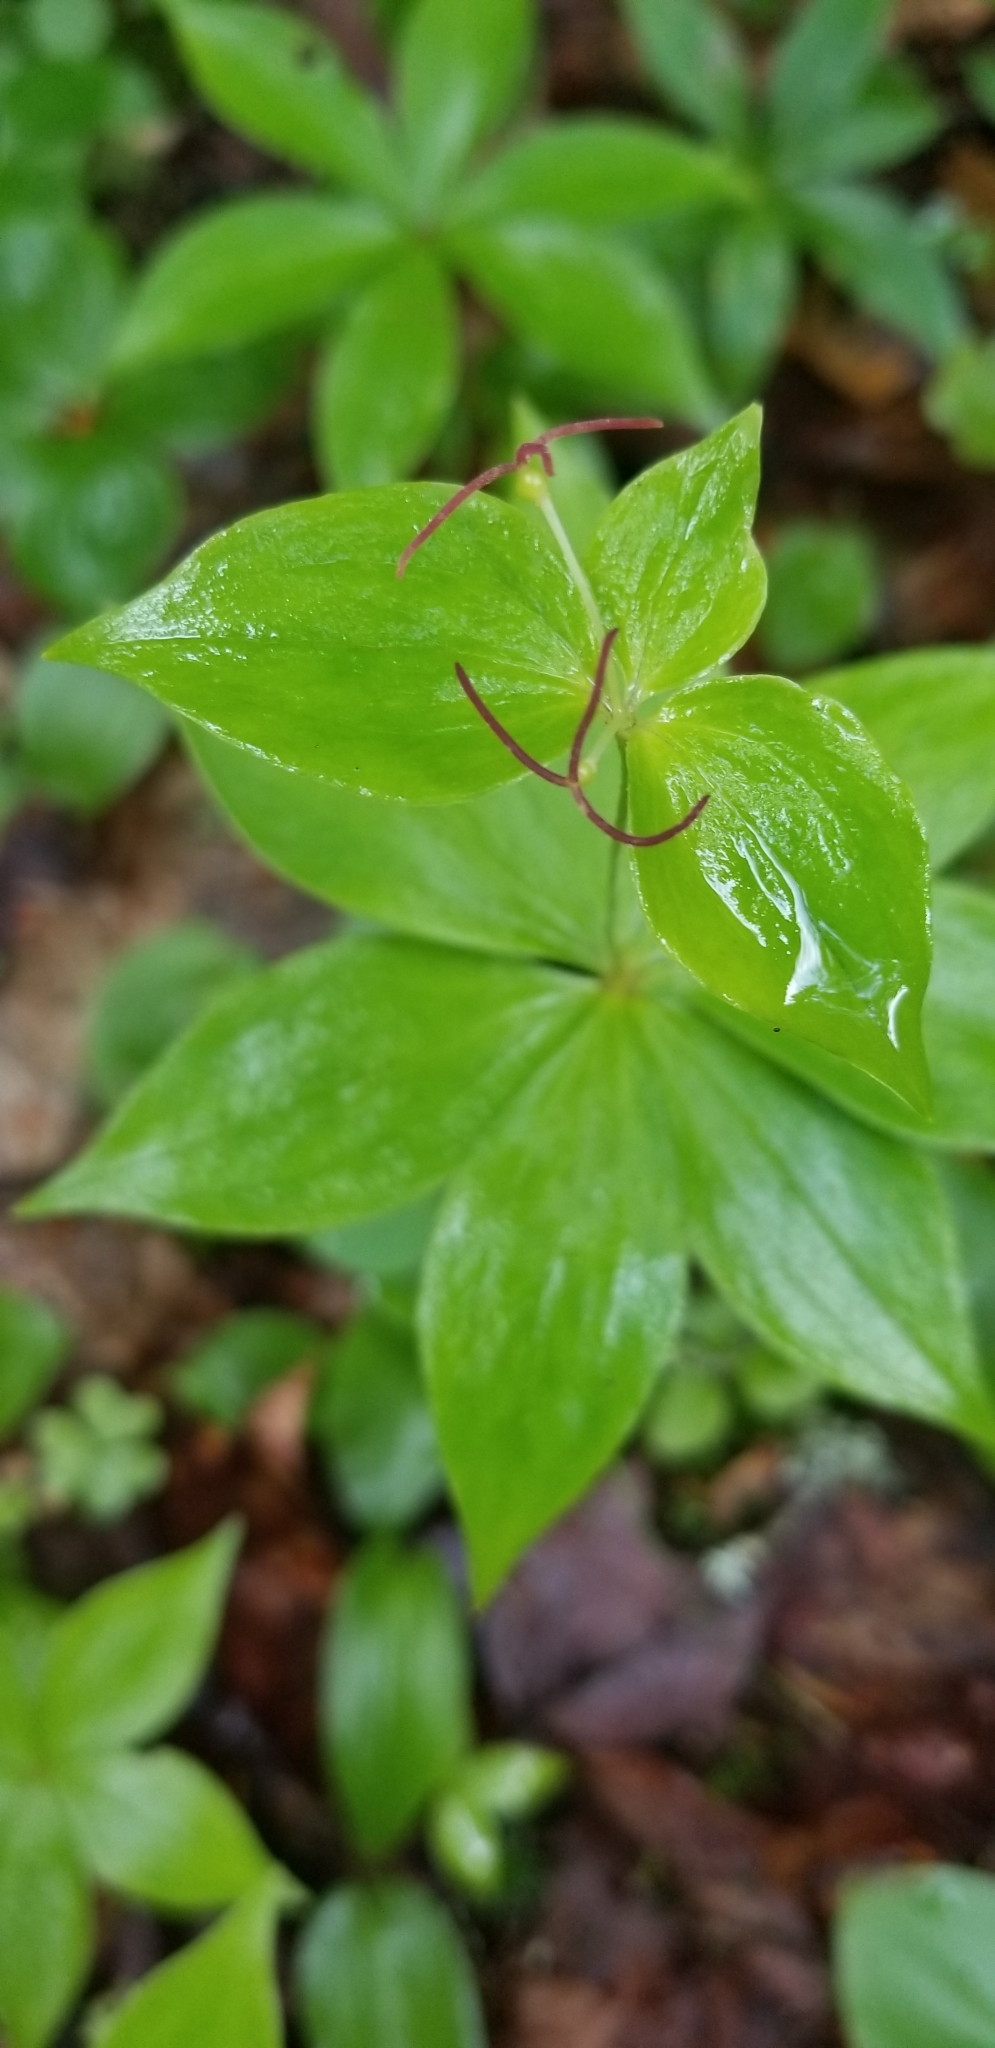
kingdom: Plantae
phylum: Tracheophyta
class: Liliopsida
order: Liliales
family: Liliaceae
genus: Medeola
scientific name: Medeola virginiana
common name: Indian cucumber-root
